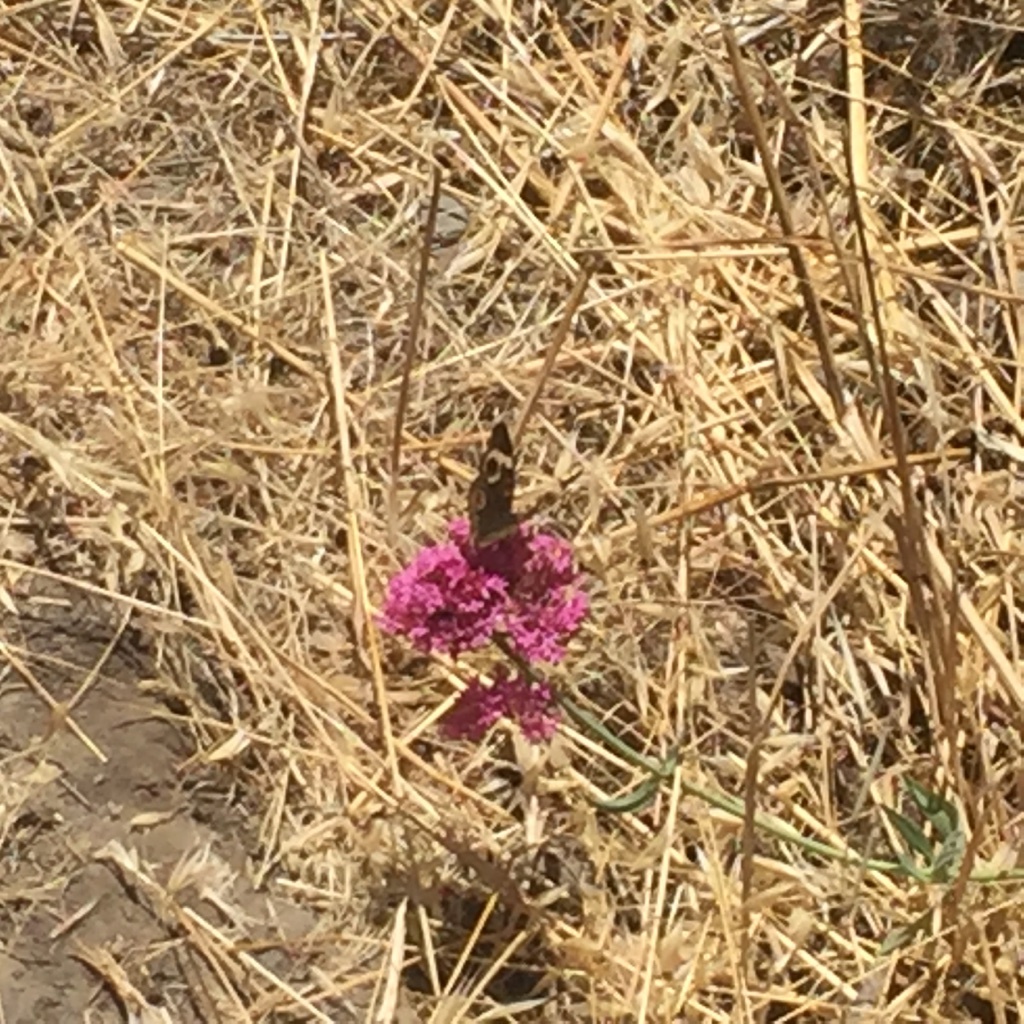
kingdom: Animalia
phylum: Arthropoda
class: Insecta
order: Lepidoptera
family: Nymphalidae
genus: Junonia
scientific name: Junonia grisea
